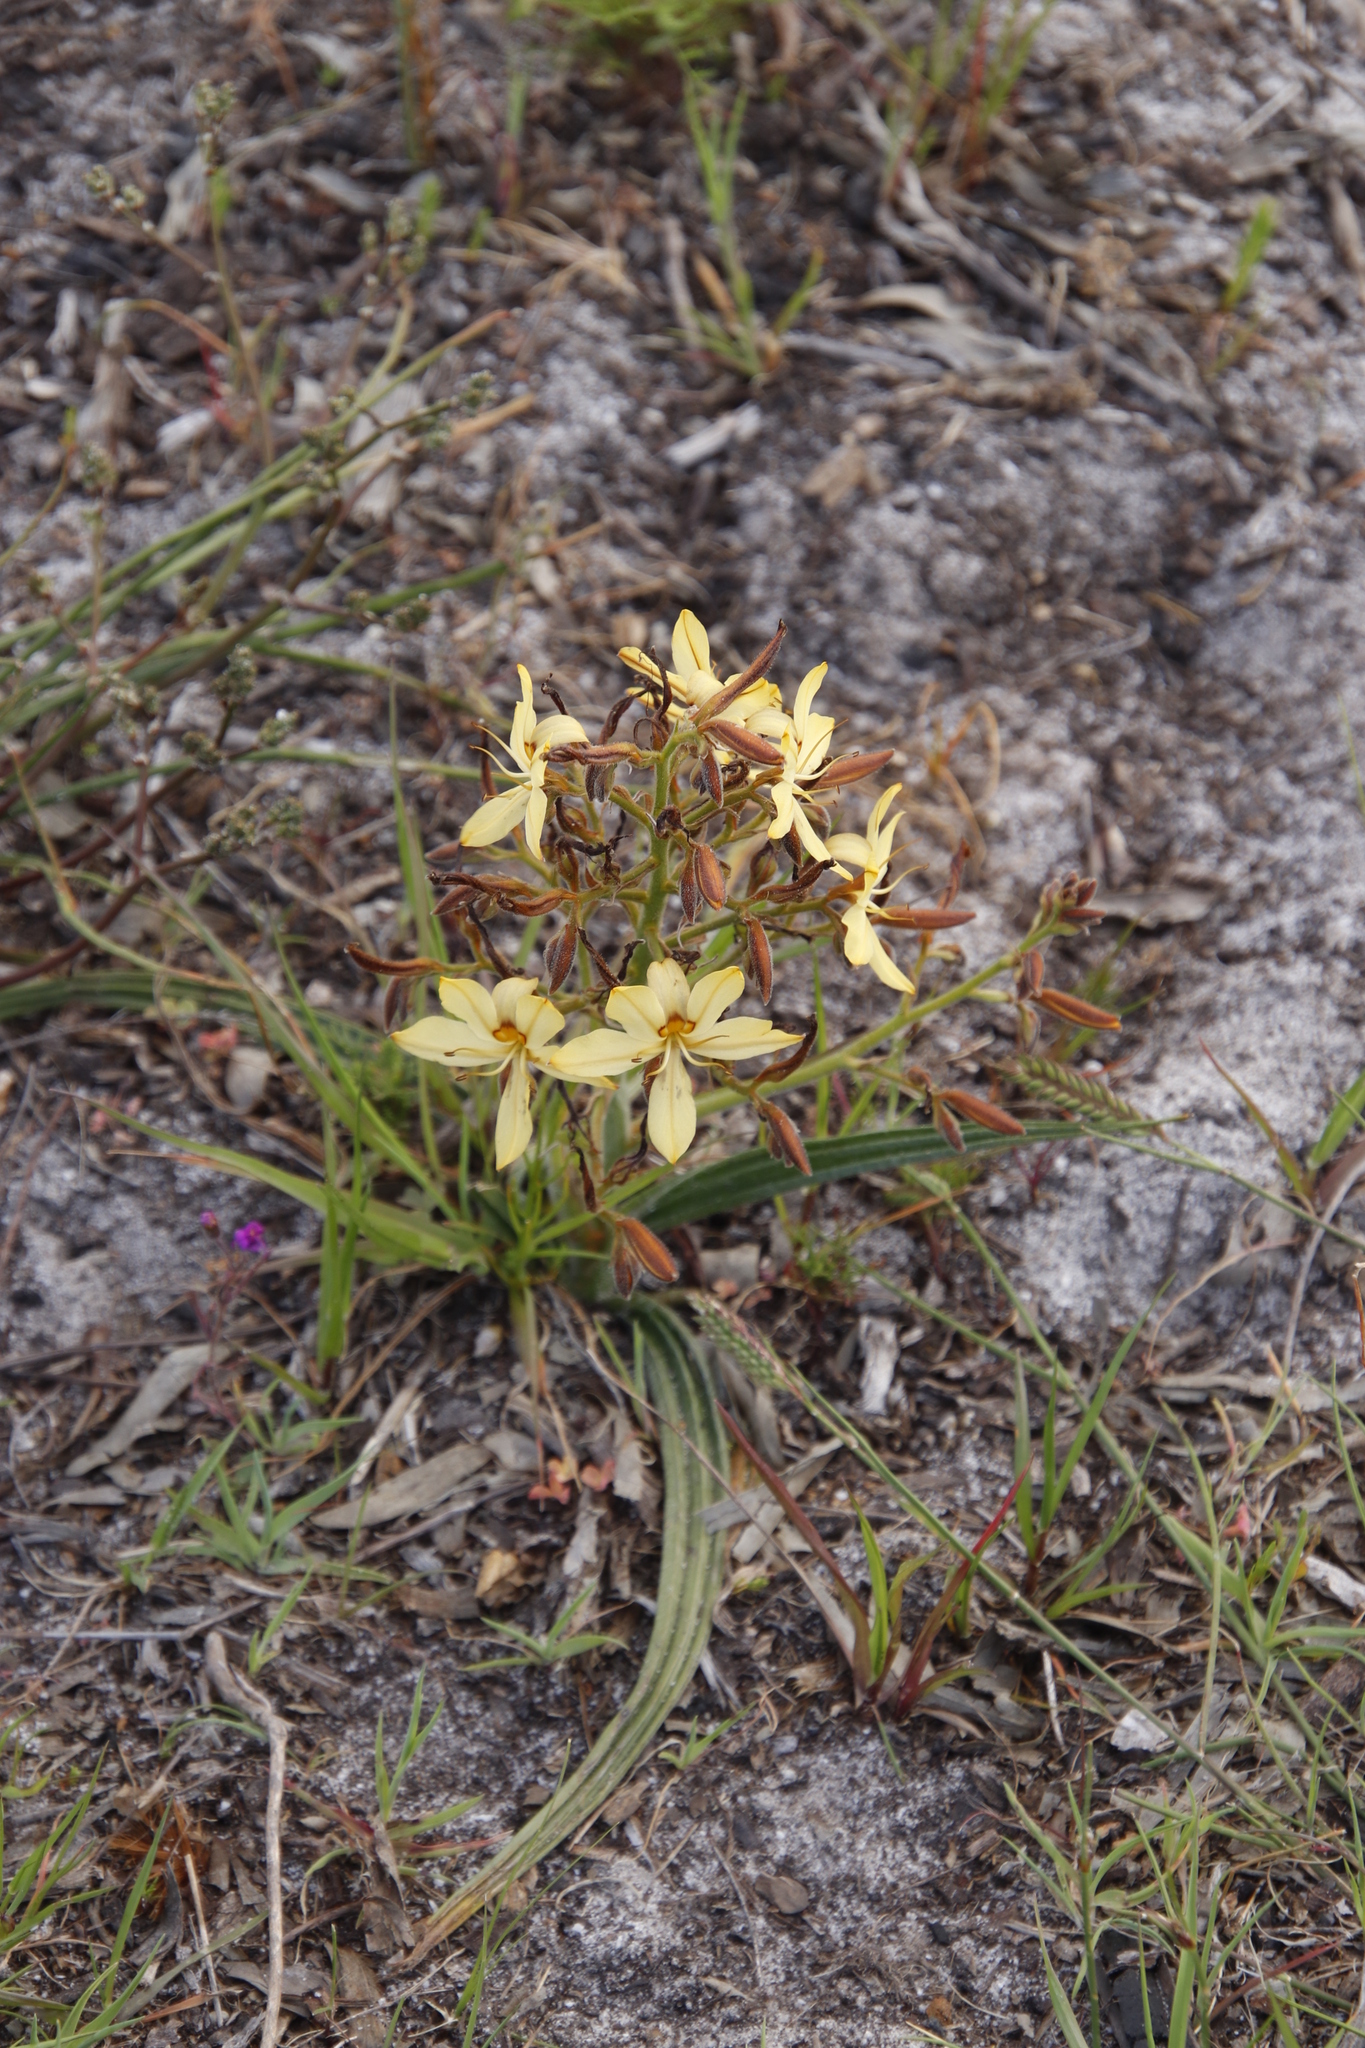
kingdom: Plantae
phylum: Tracheophyta
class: Liliopsida
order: Commelinales
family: Haemodoraceae
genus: Wachendorfia
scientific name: Wachendorfia paniculata
